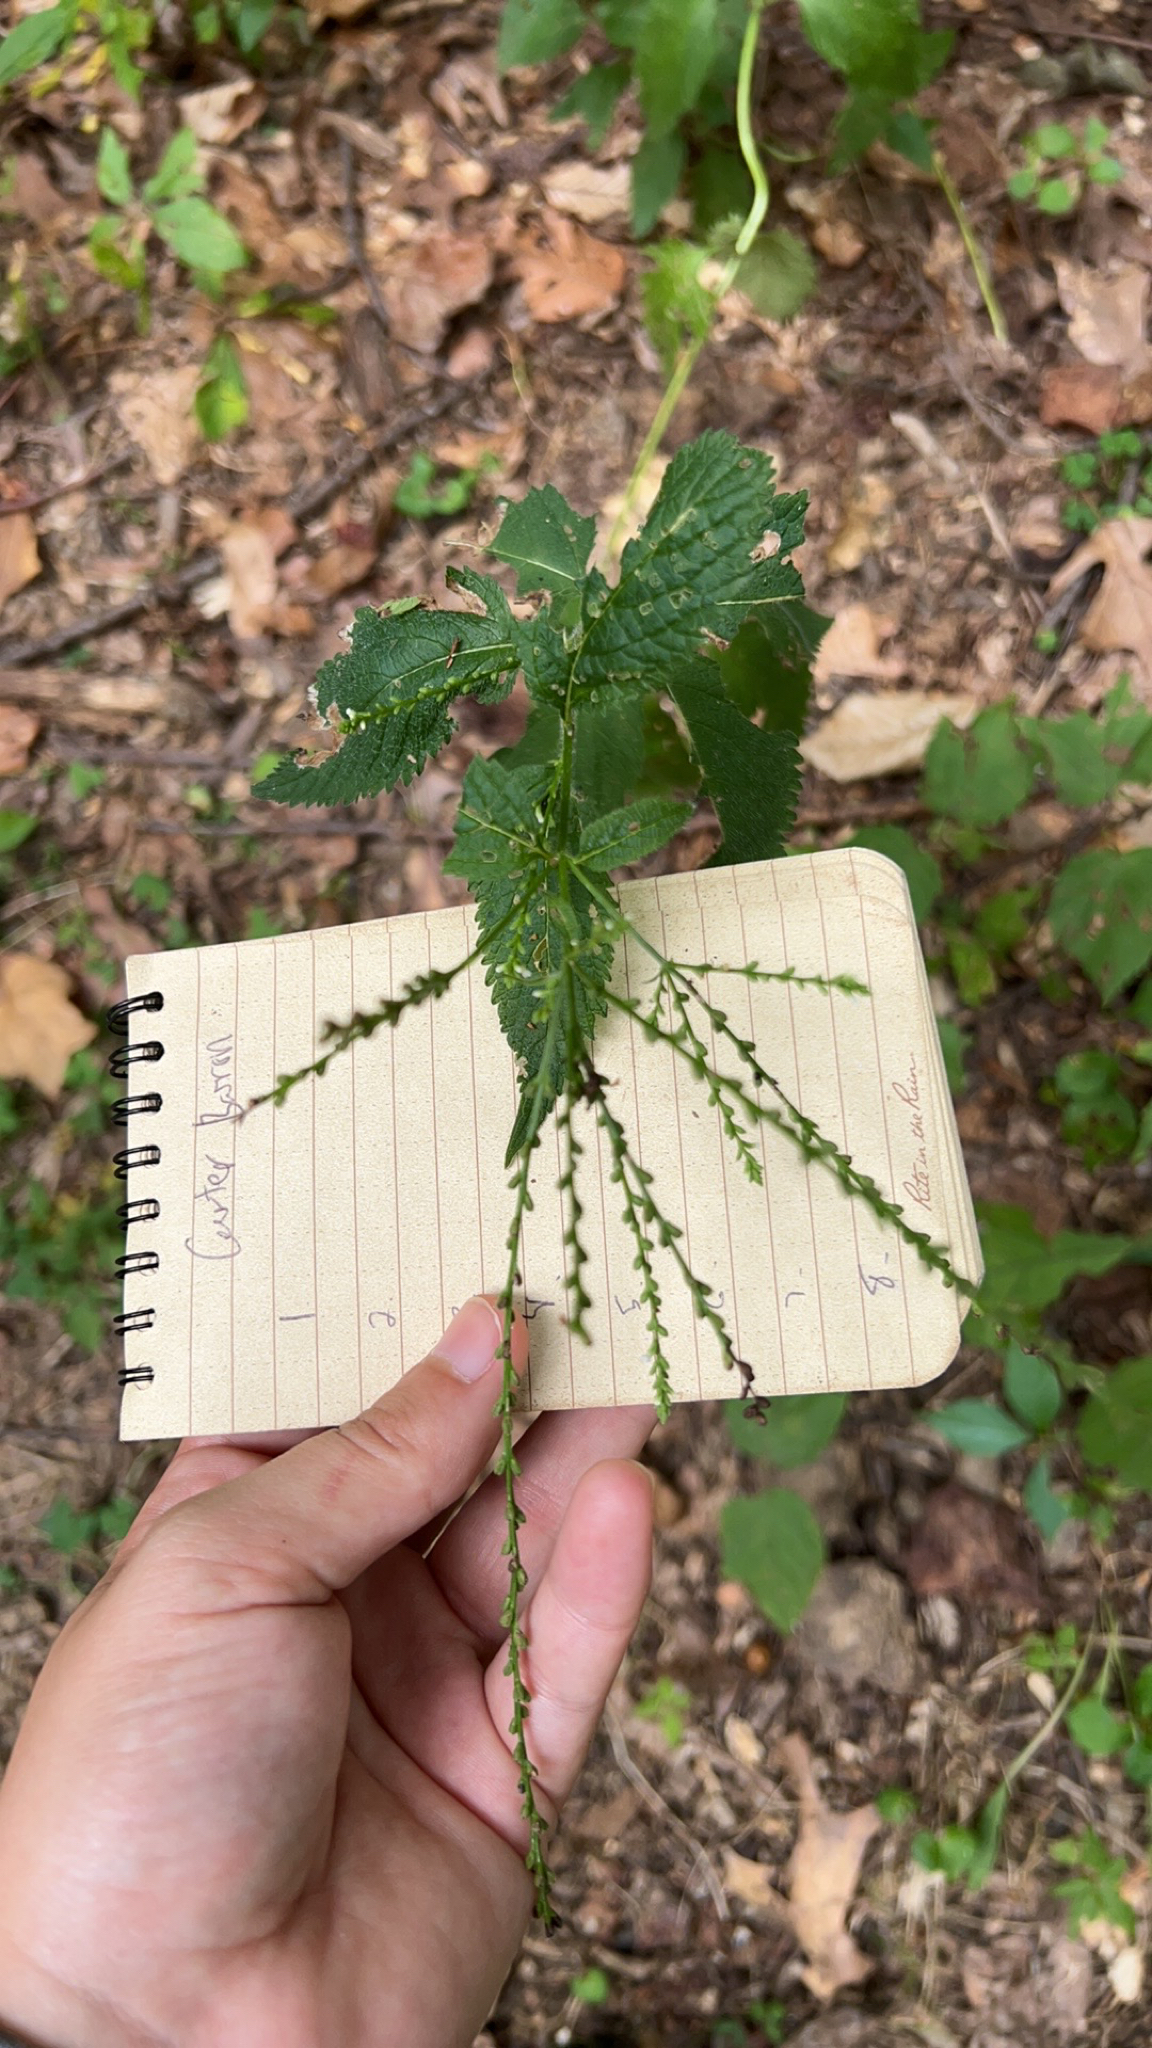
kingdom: Plantae
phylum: Tracheophyta
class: Magnoliopsida
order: Lamiales
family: Verbenaceae
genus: Verbena
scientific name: Verbena urticifolia
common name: Nettle-leaved vervain
